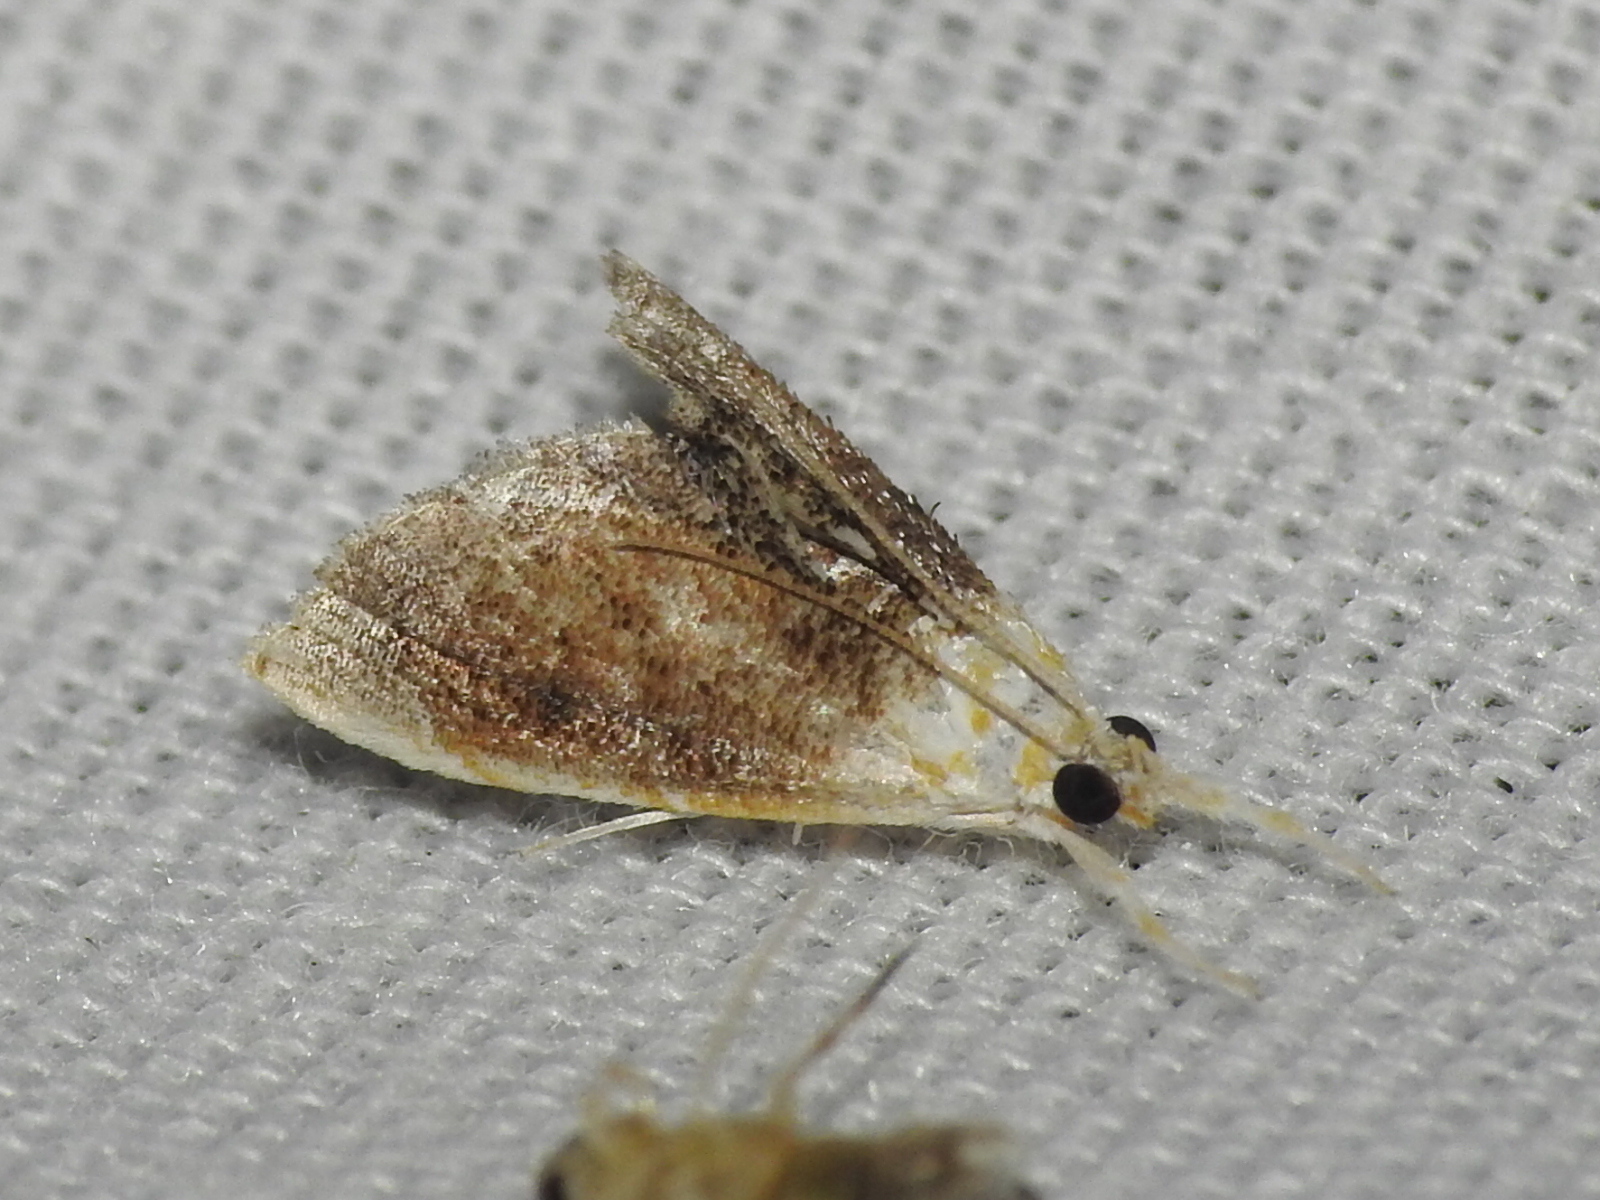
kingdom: Animalia
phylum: Arthropoda
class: Insecta
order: Lepidoptera
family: Crambidae
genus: Lipocosma
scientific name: Lipocosma polingi
